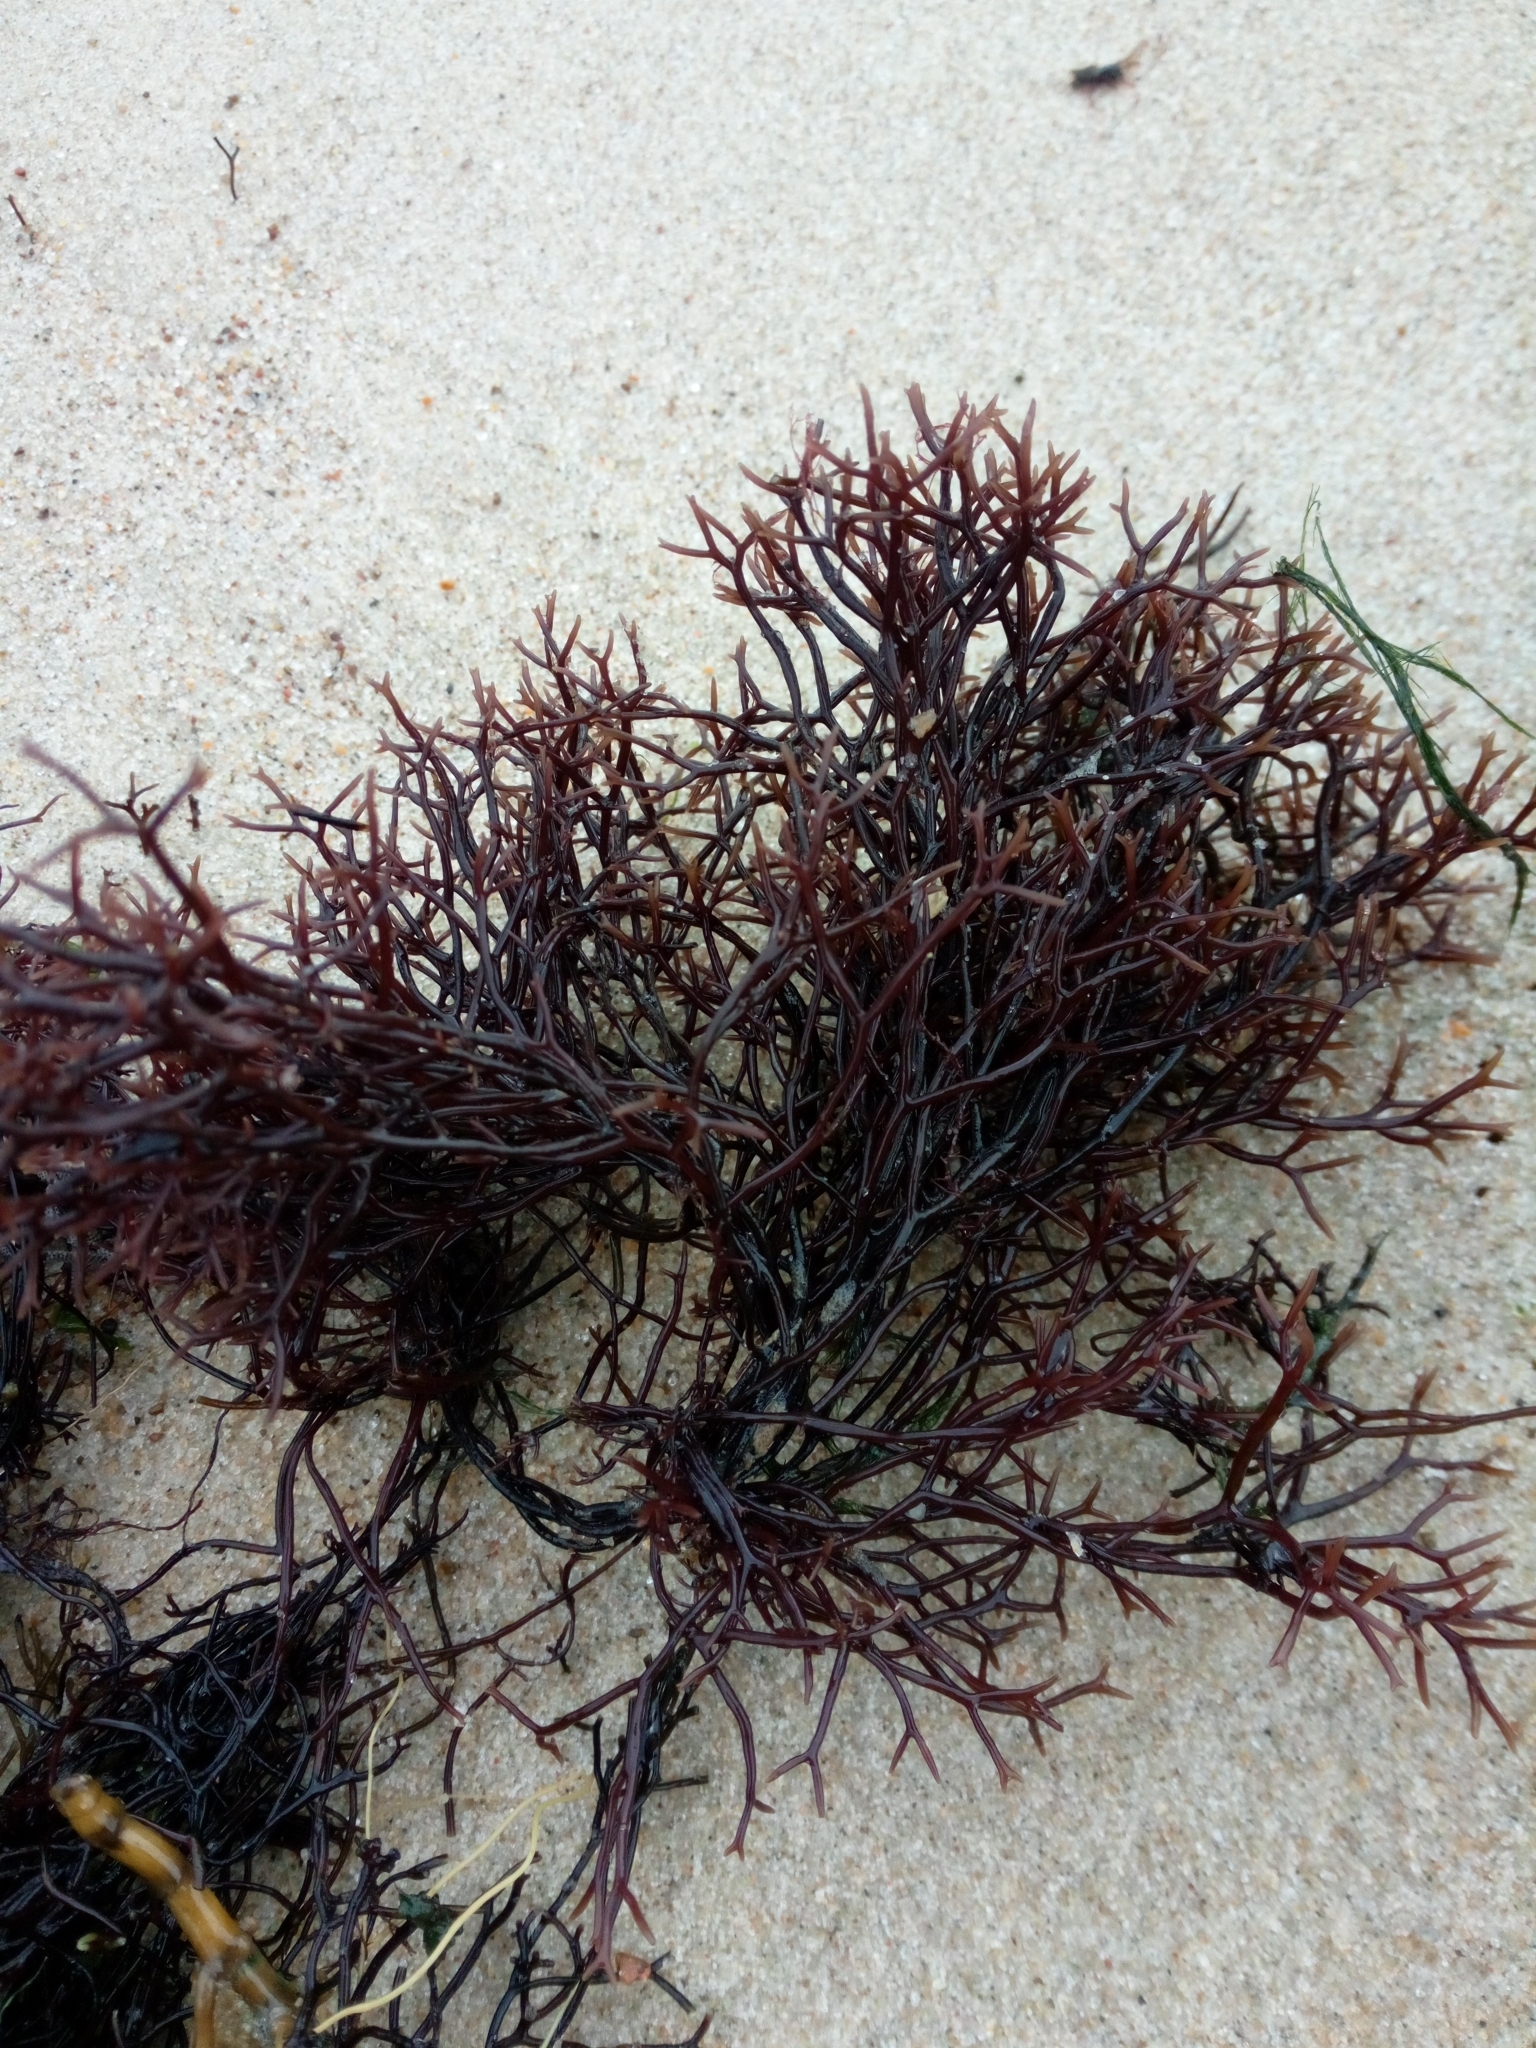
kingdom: Plantae
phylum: Rhodophyta
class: Florideophyceae
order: Gigartinales
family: Furcellariaceae
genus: Furcellaria
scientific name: Furcellaria lumbricalis
